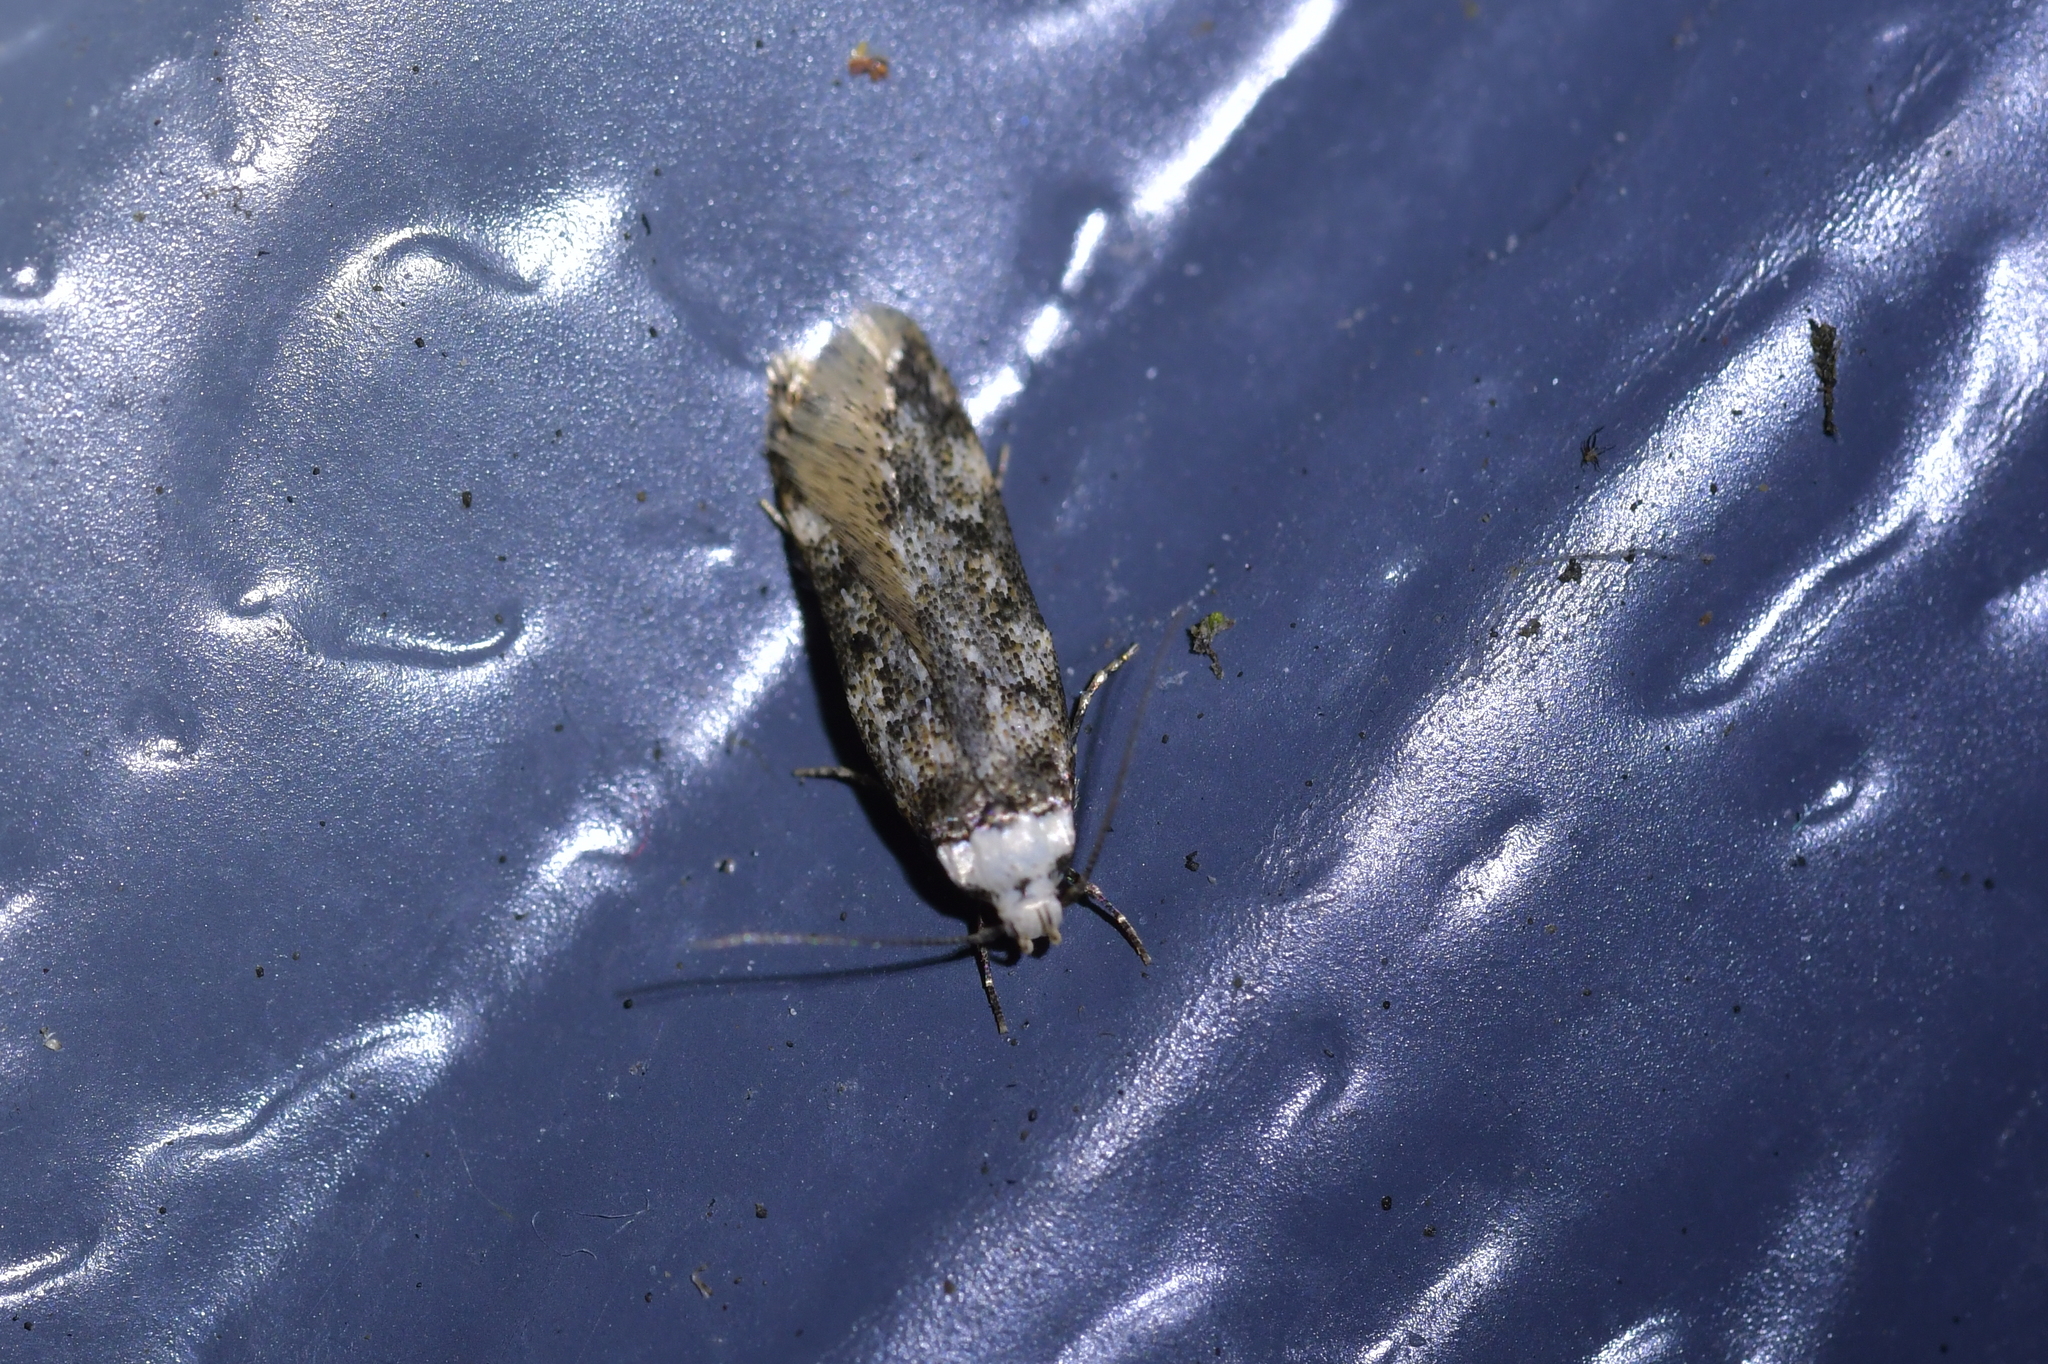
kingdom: Animalia
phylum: Arthropoda
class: Insecta
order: Lepidoptera
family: Oecophoridae
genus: Endrosis
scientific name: Endrosis sarcitrella
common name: White-shouldered house moth
